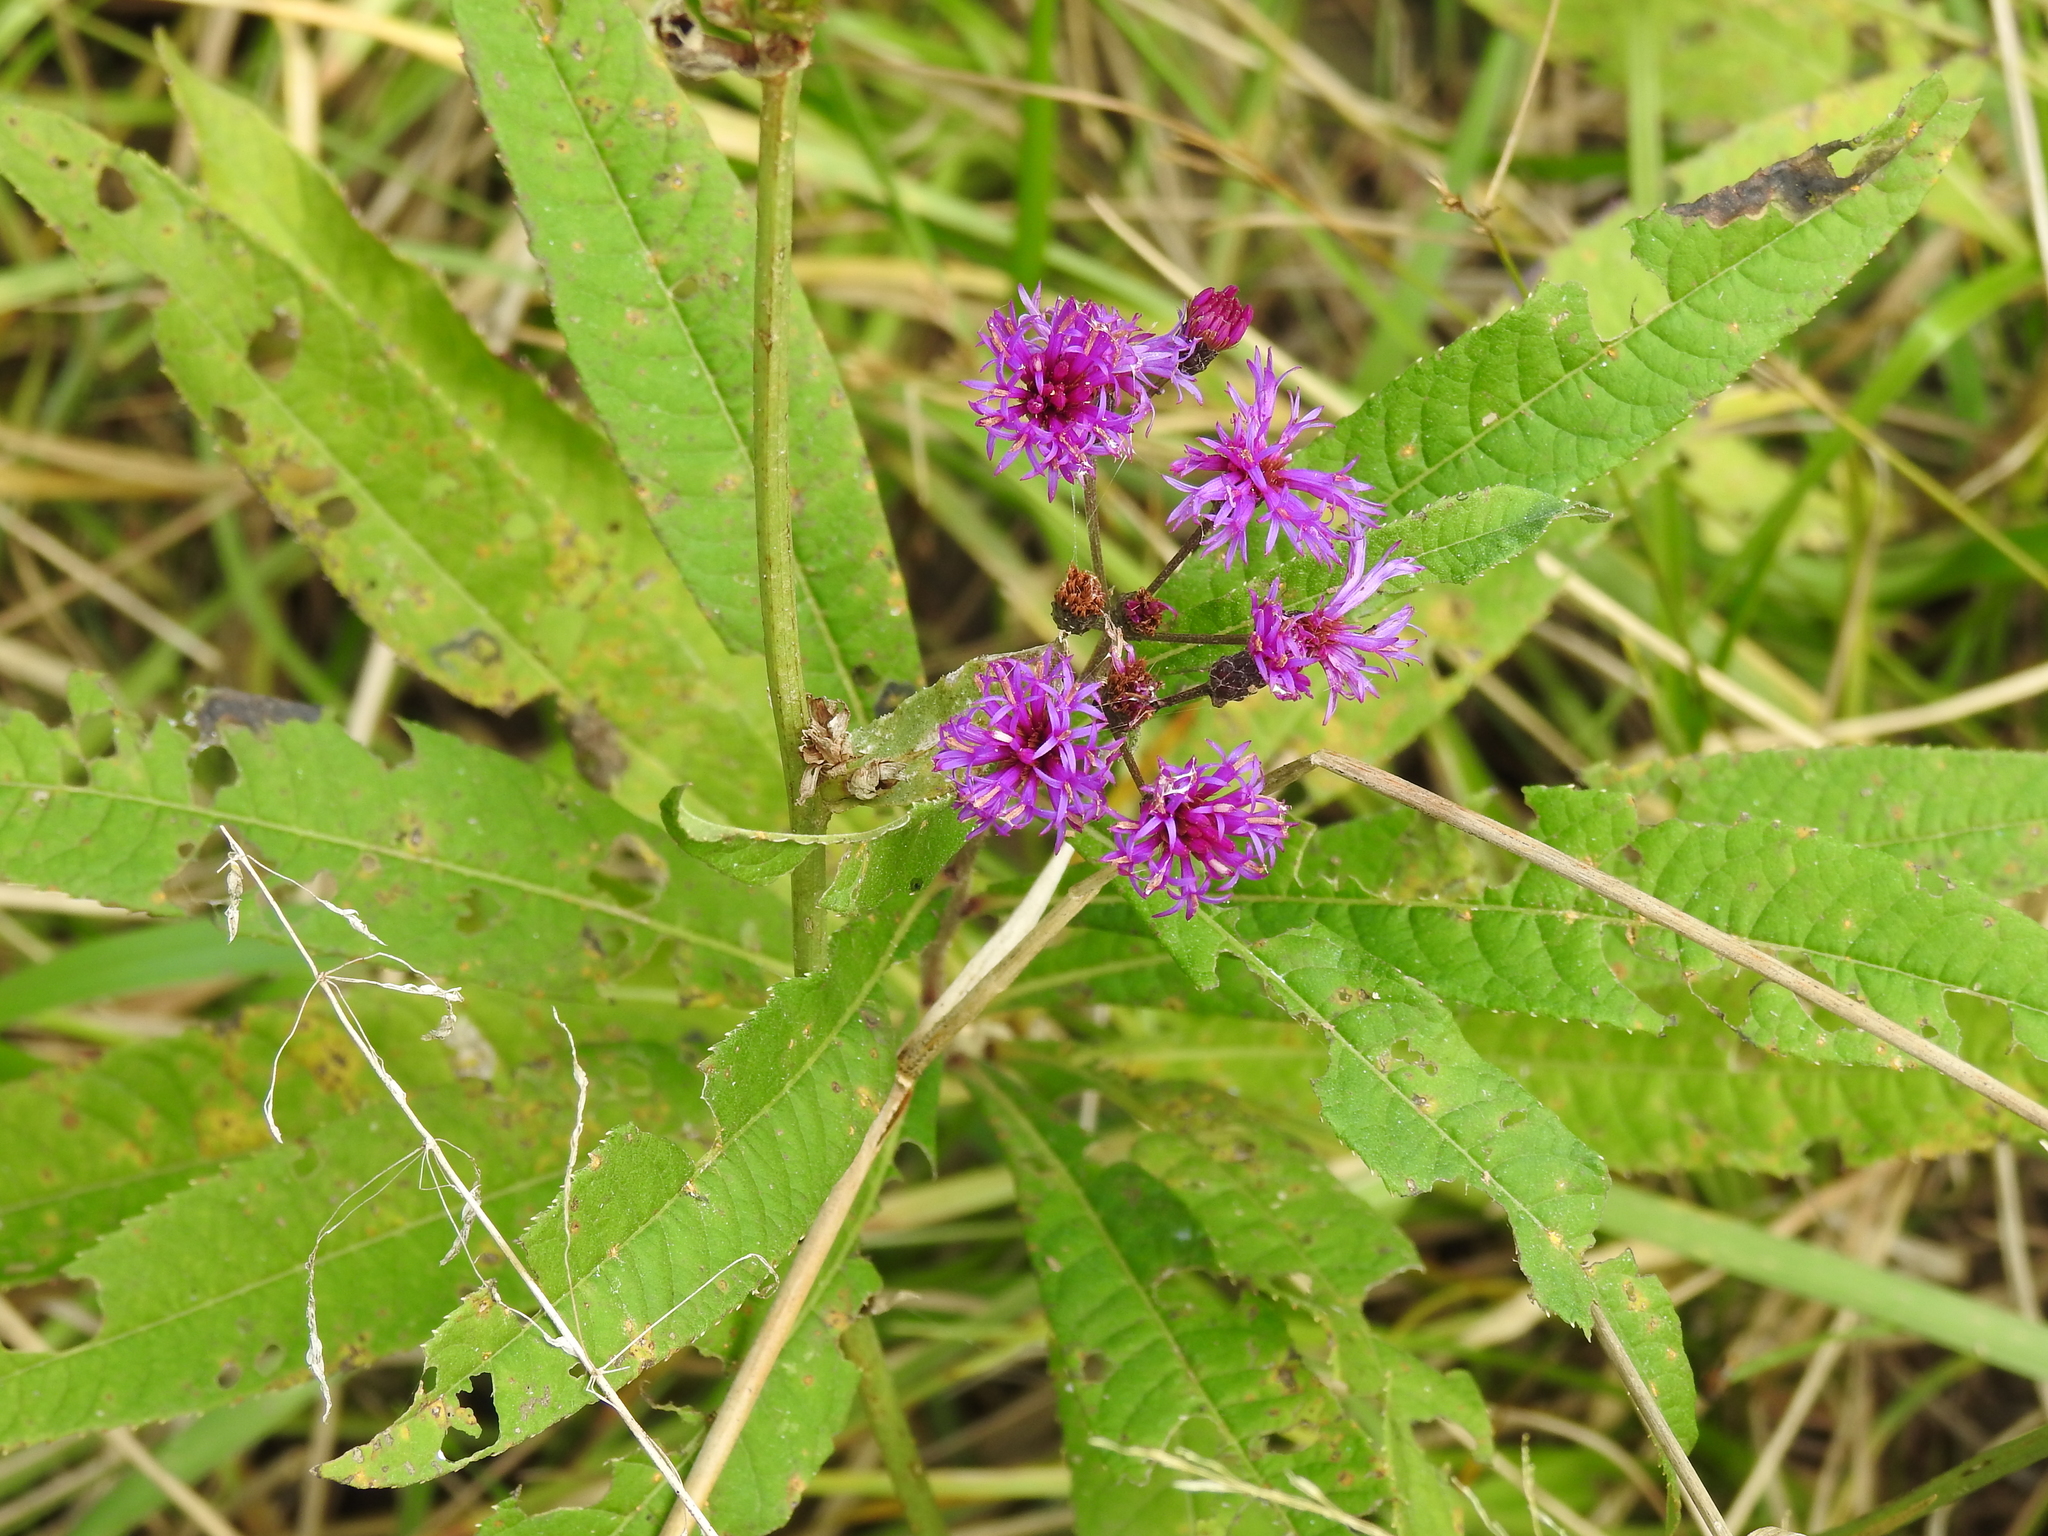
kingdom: Plantae
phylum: Tracheophyta
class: Magnoliopsida
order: Asterales
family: Asteraceae
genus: Vernonia
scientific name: Vernonia gigantea
